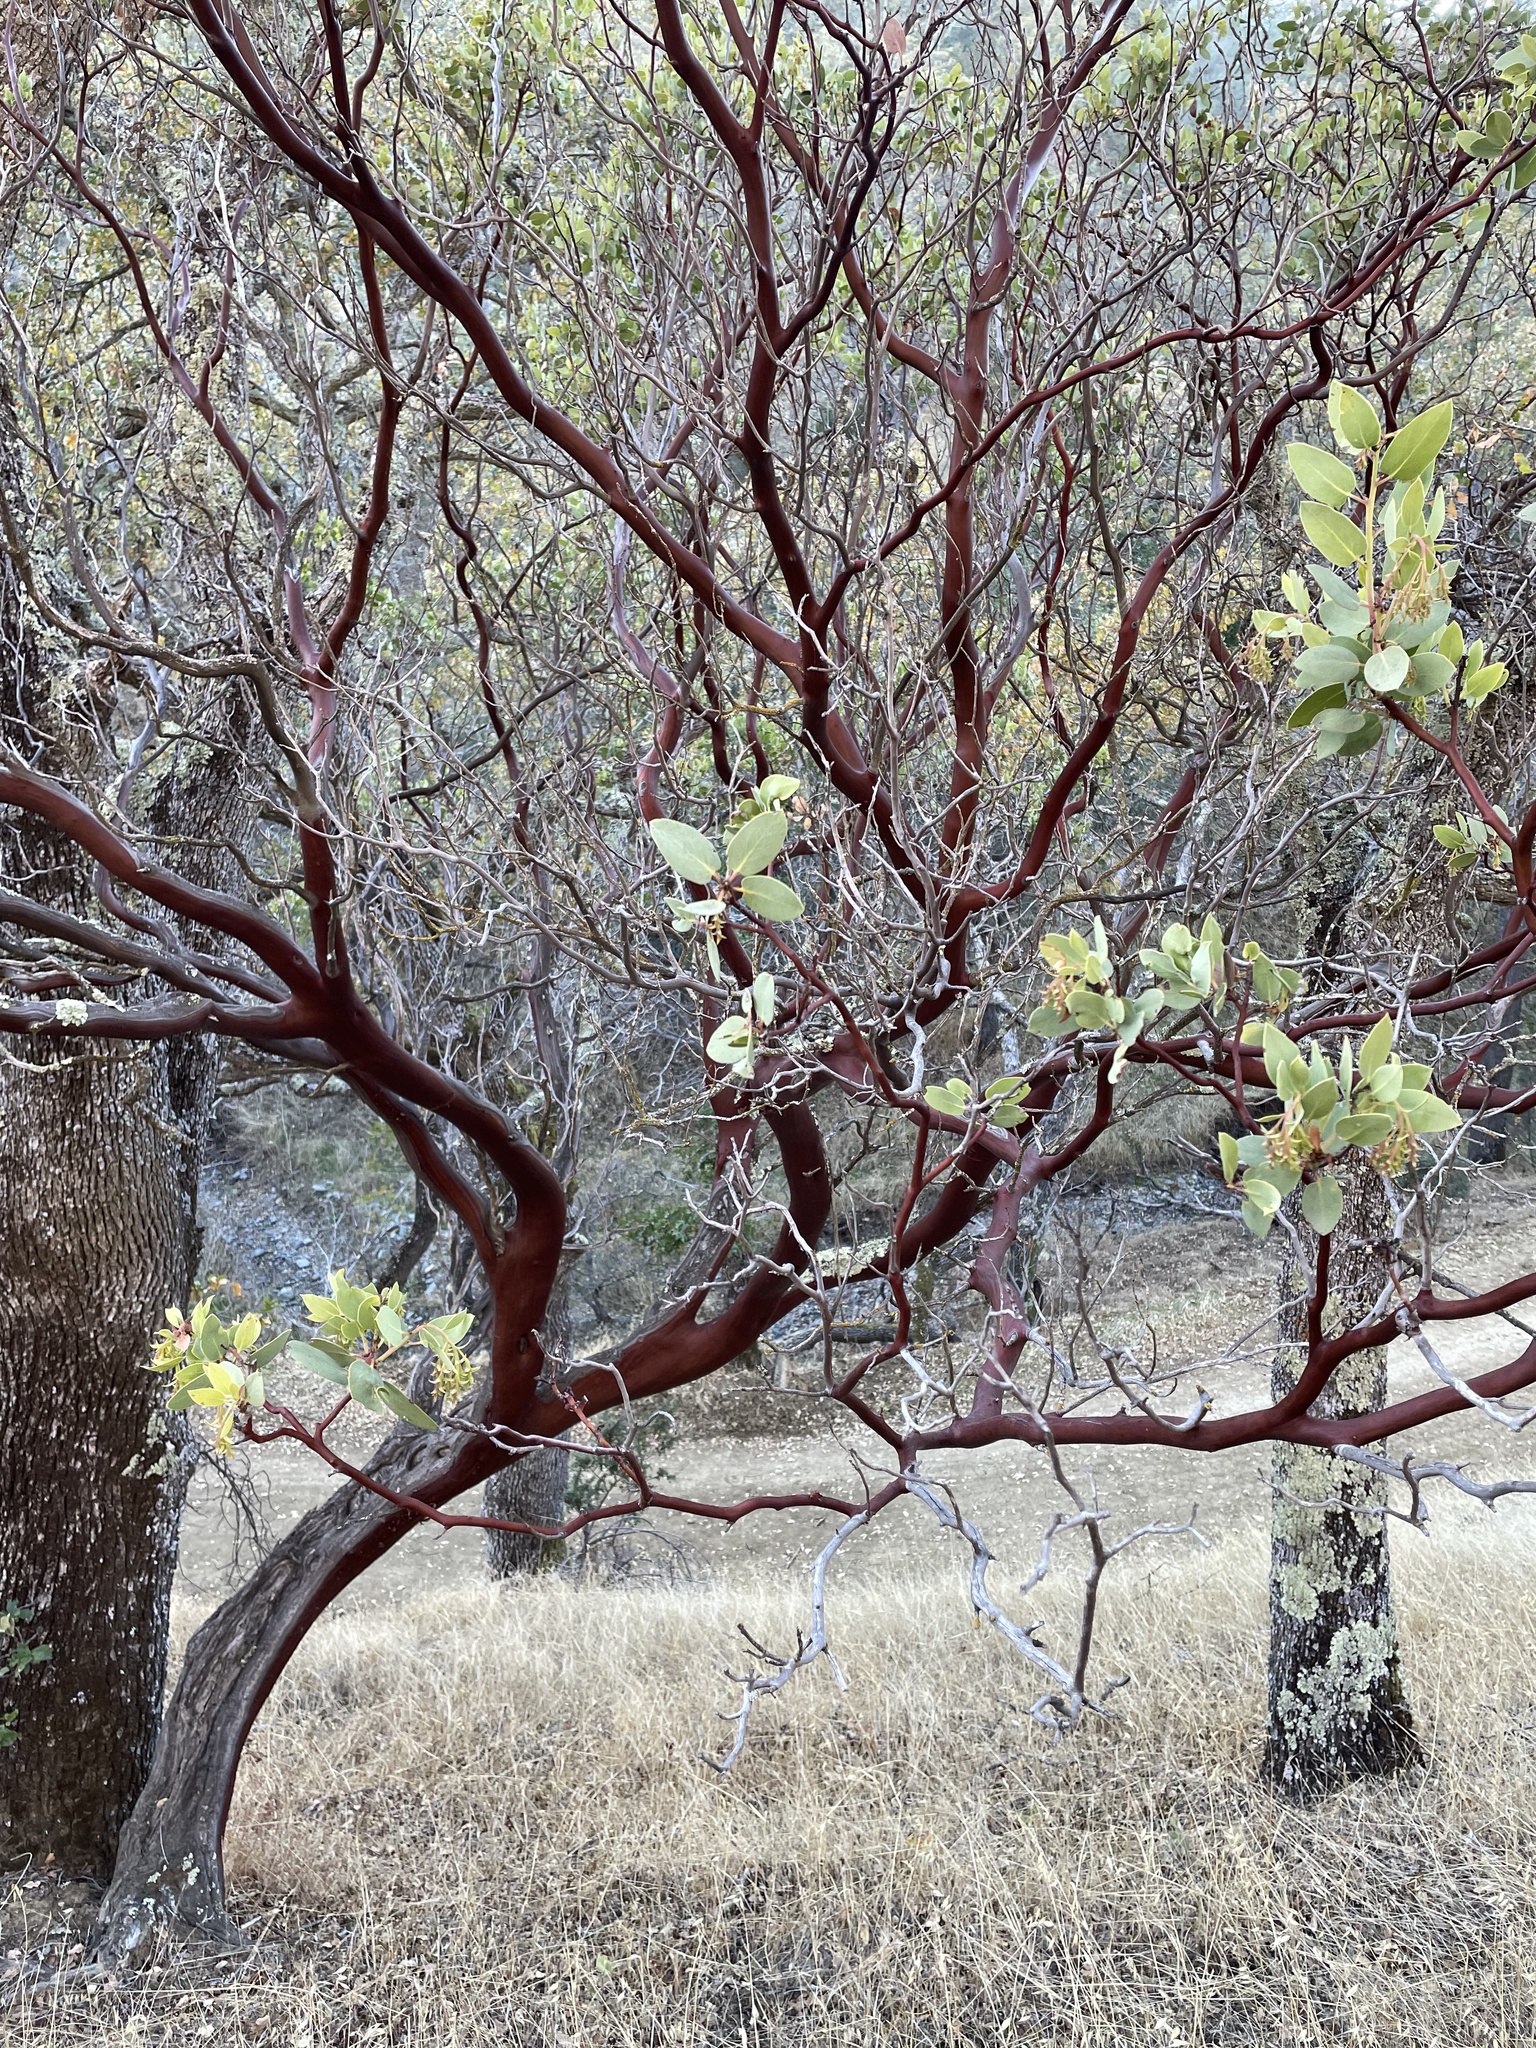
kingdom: Plantae
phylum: Tracheophyta
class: Magnoliopsida
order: Ericales
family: Ericaceae
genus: Arctostaphylos
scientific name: Arctostaphylos glauca
